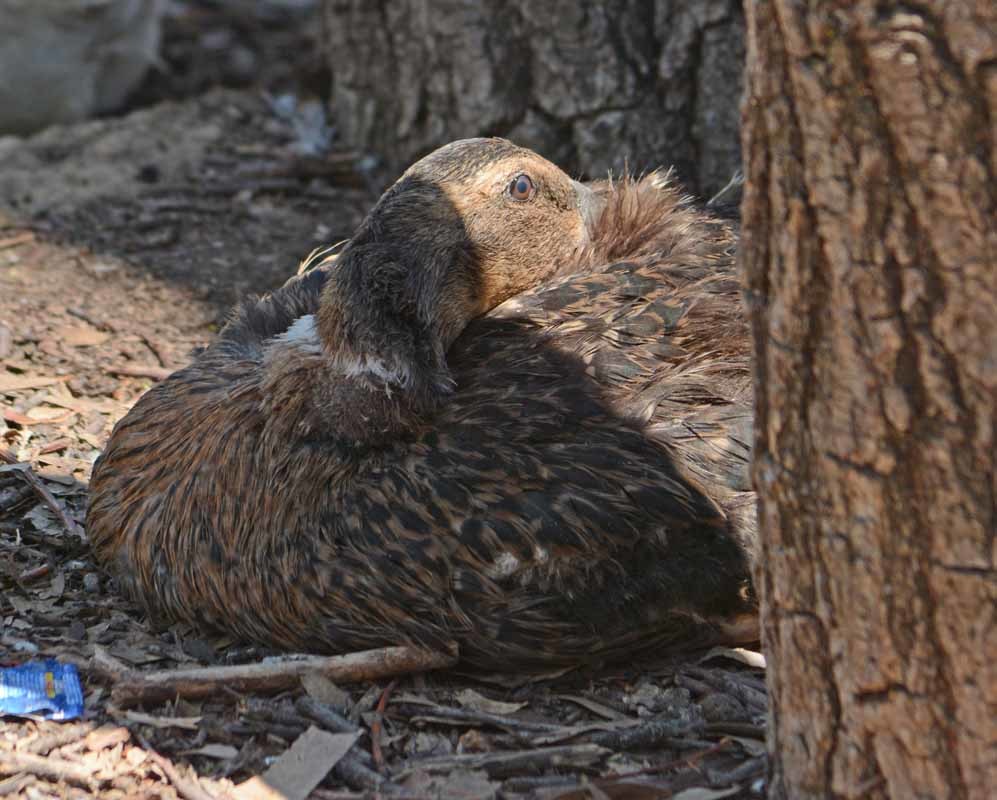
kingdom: Animalia
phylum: Chordata
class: Aves
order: Anseriformes
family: Anatidae
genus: Anas
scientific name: Anas platyrhynchos
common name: Mallard
